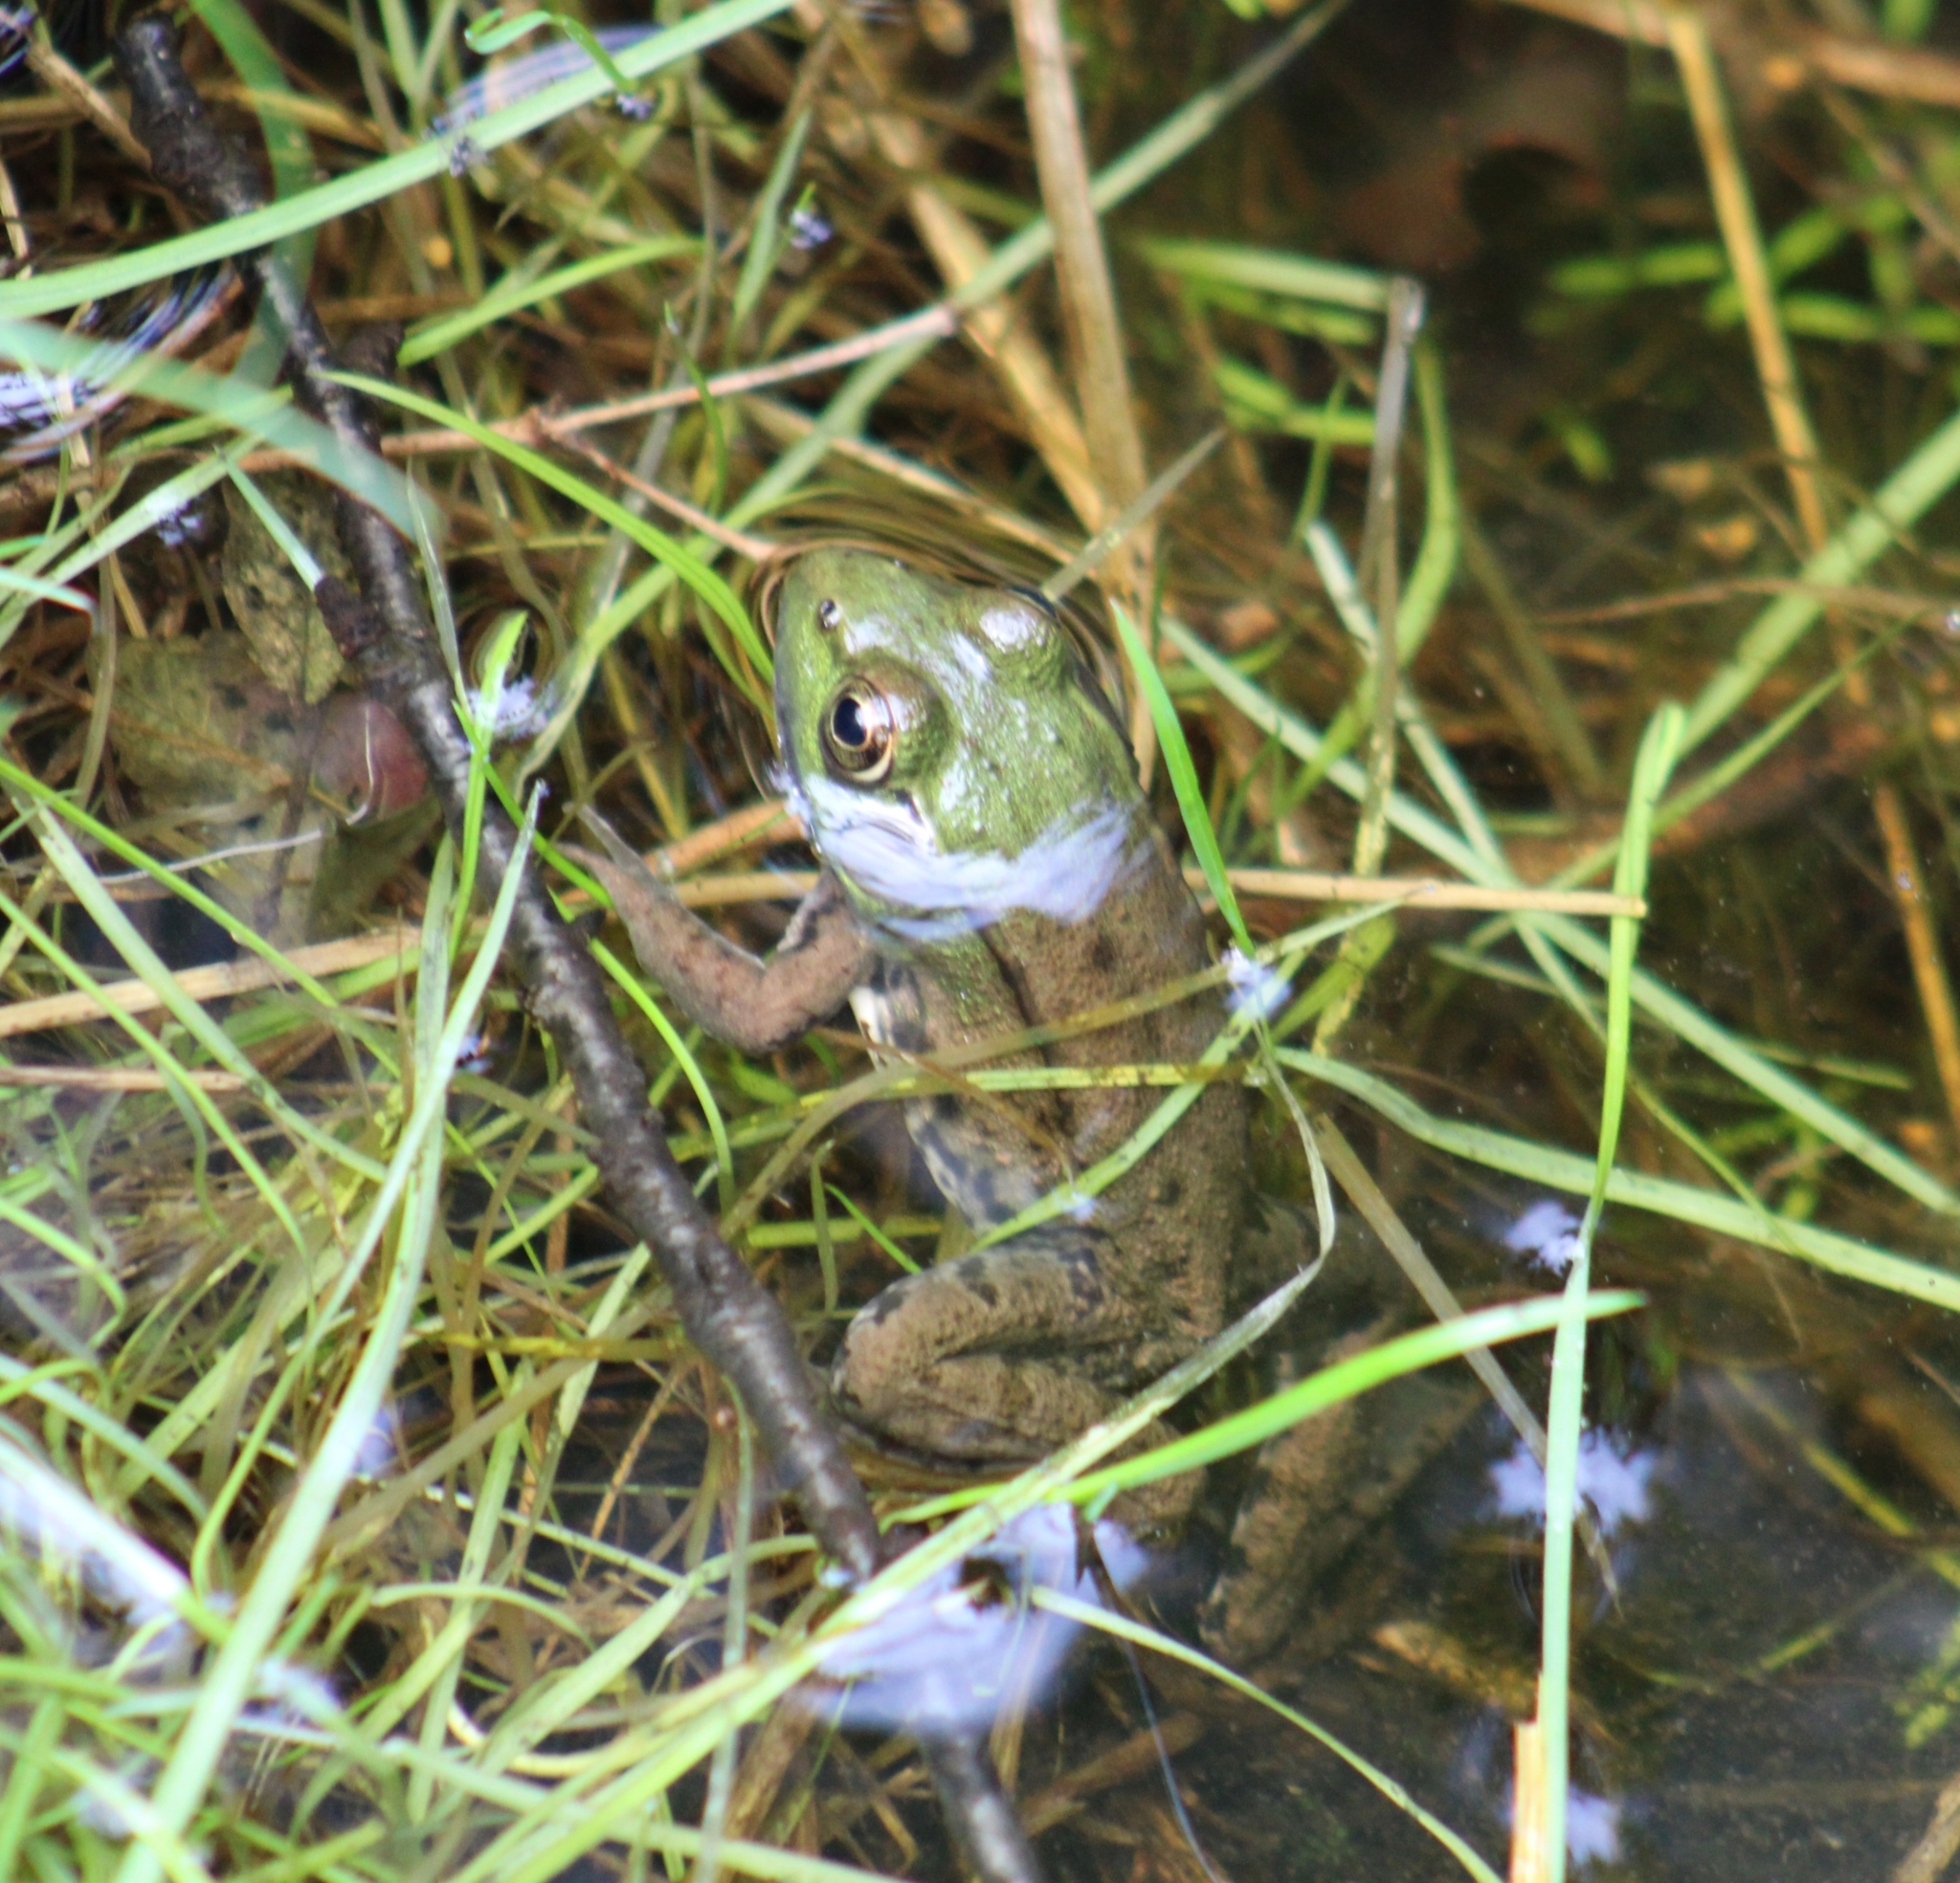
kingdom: Animalia
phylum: Chordata
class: Amphibia
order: Anura
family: Ranidae
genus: Lithobates
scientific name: Lithobates clamitans
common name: Green frog
